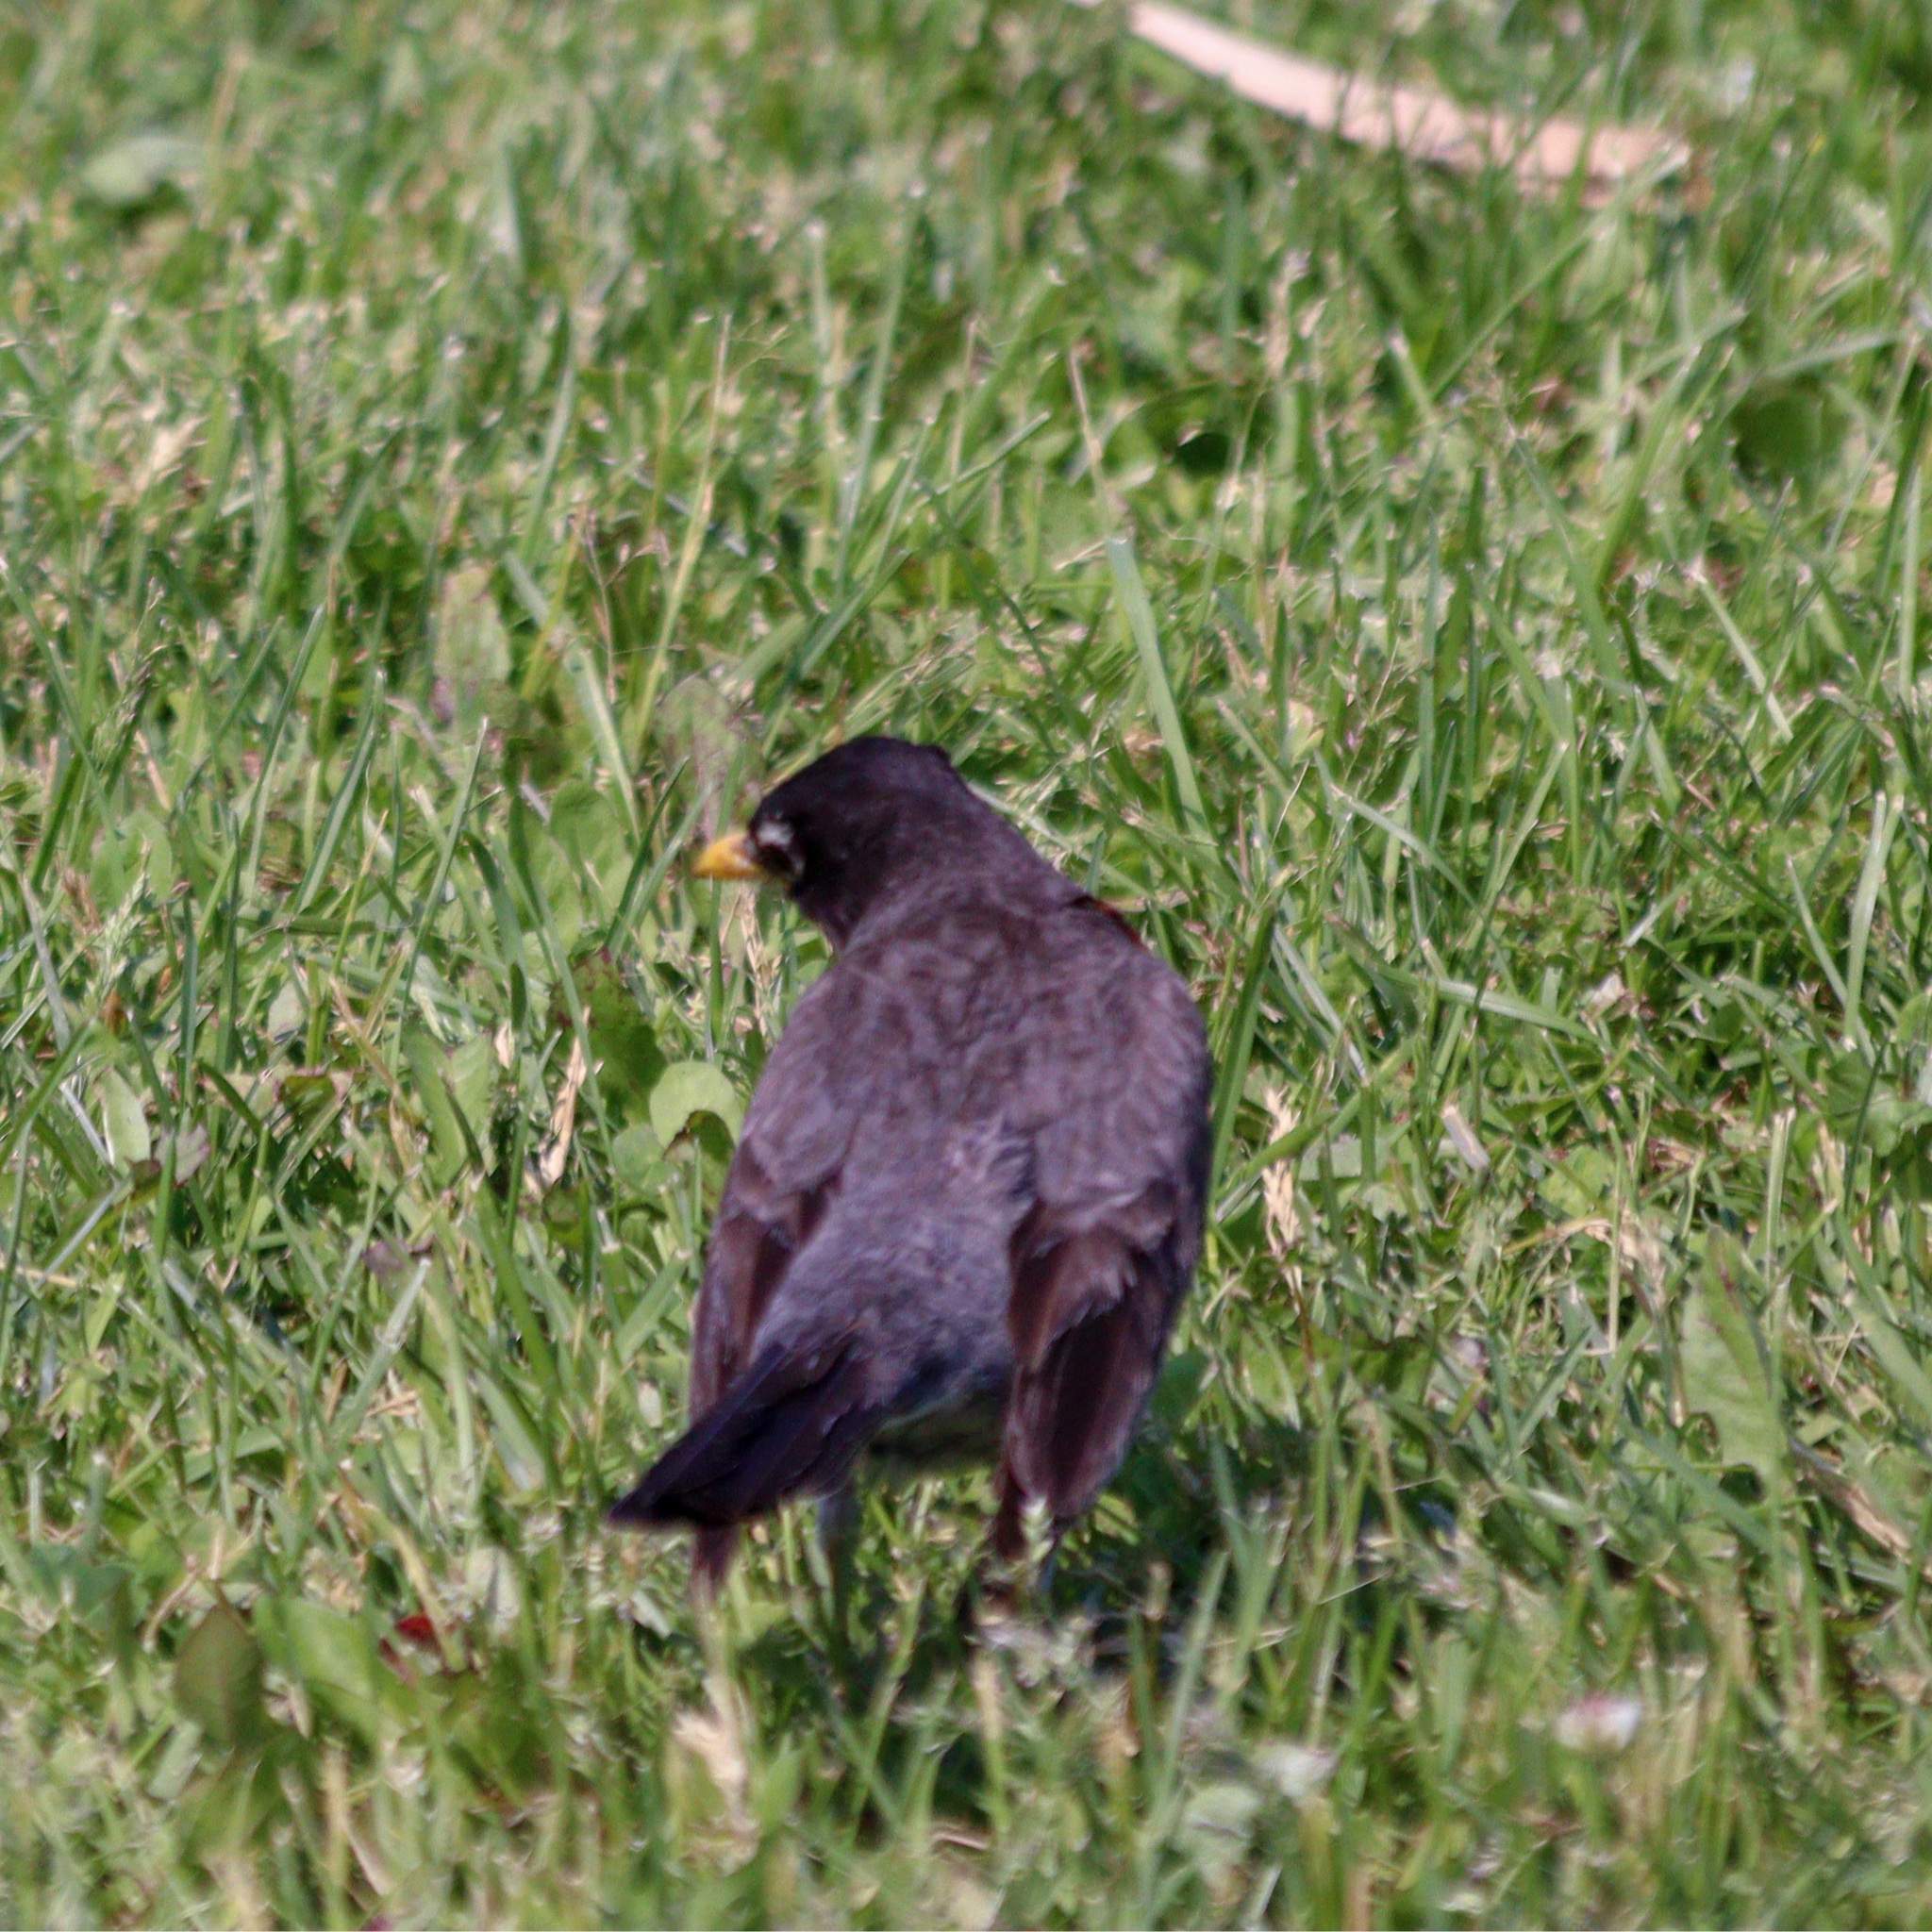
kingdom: Animalia
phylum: Chordata
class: Aves
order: Passeriformes
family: Turdidae
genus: Turdus
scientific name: Turdus migratorius
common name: American robin
